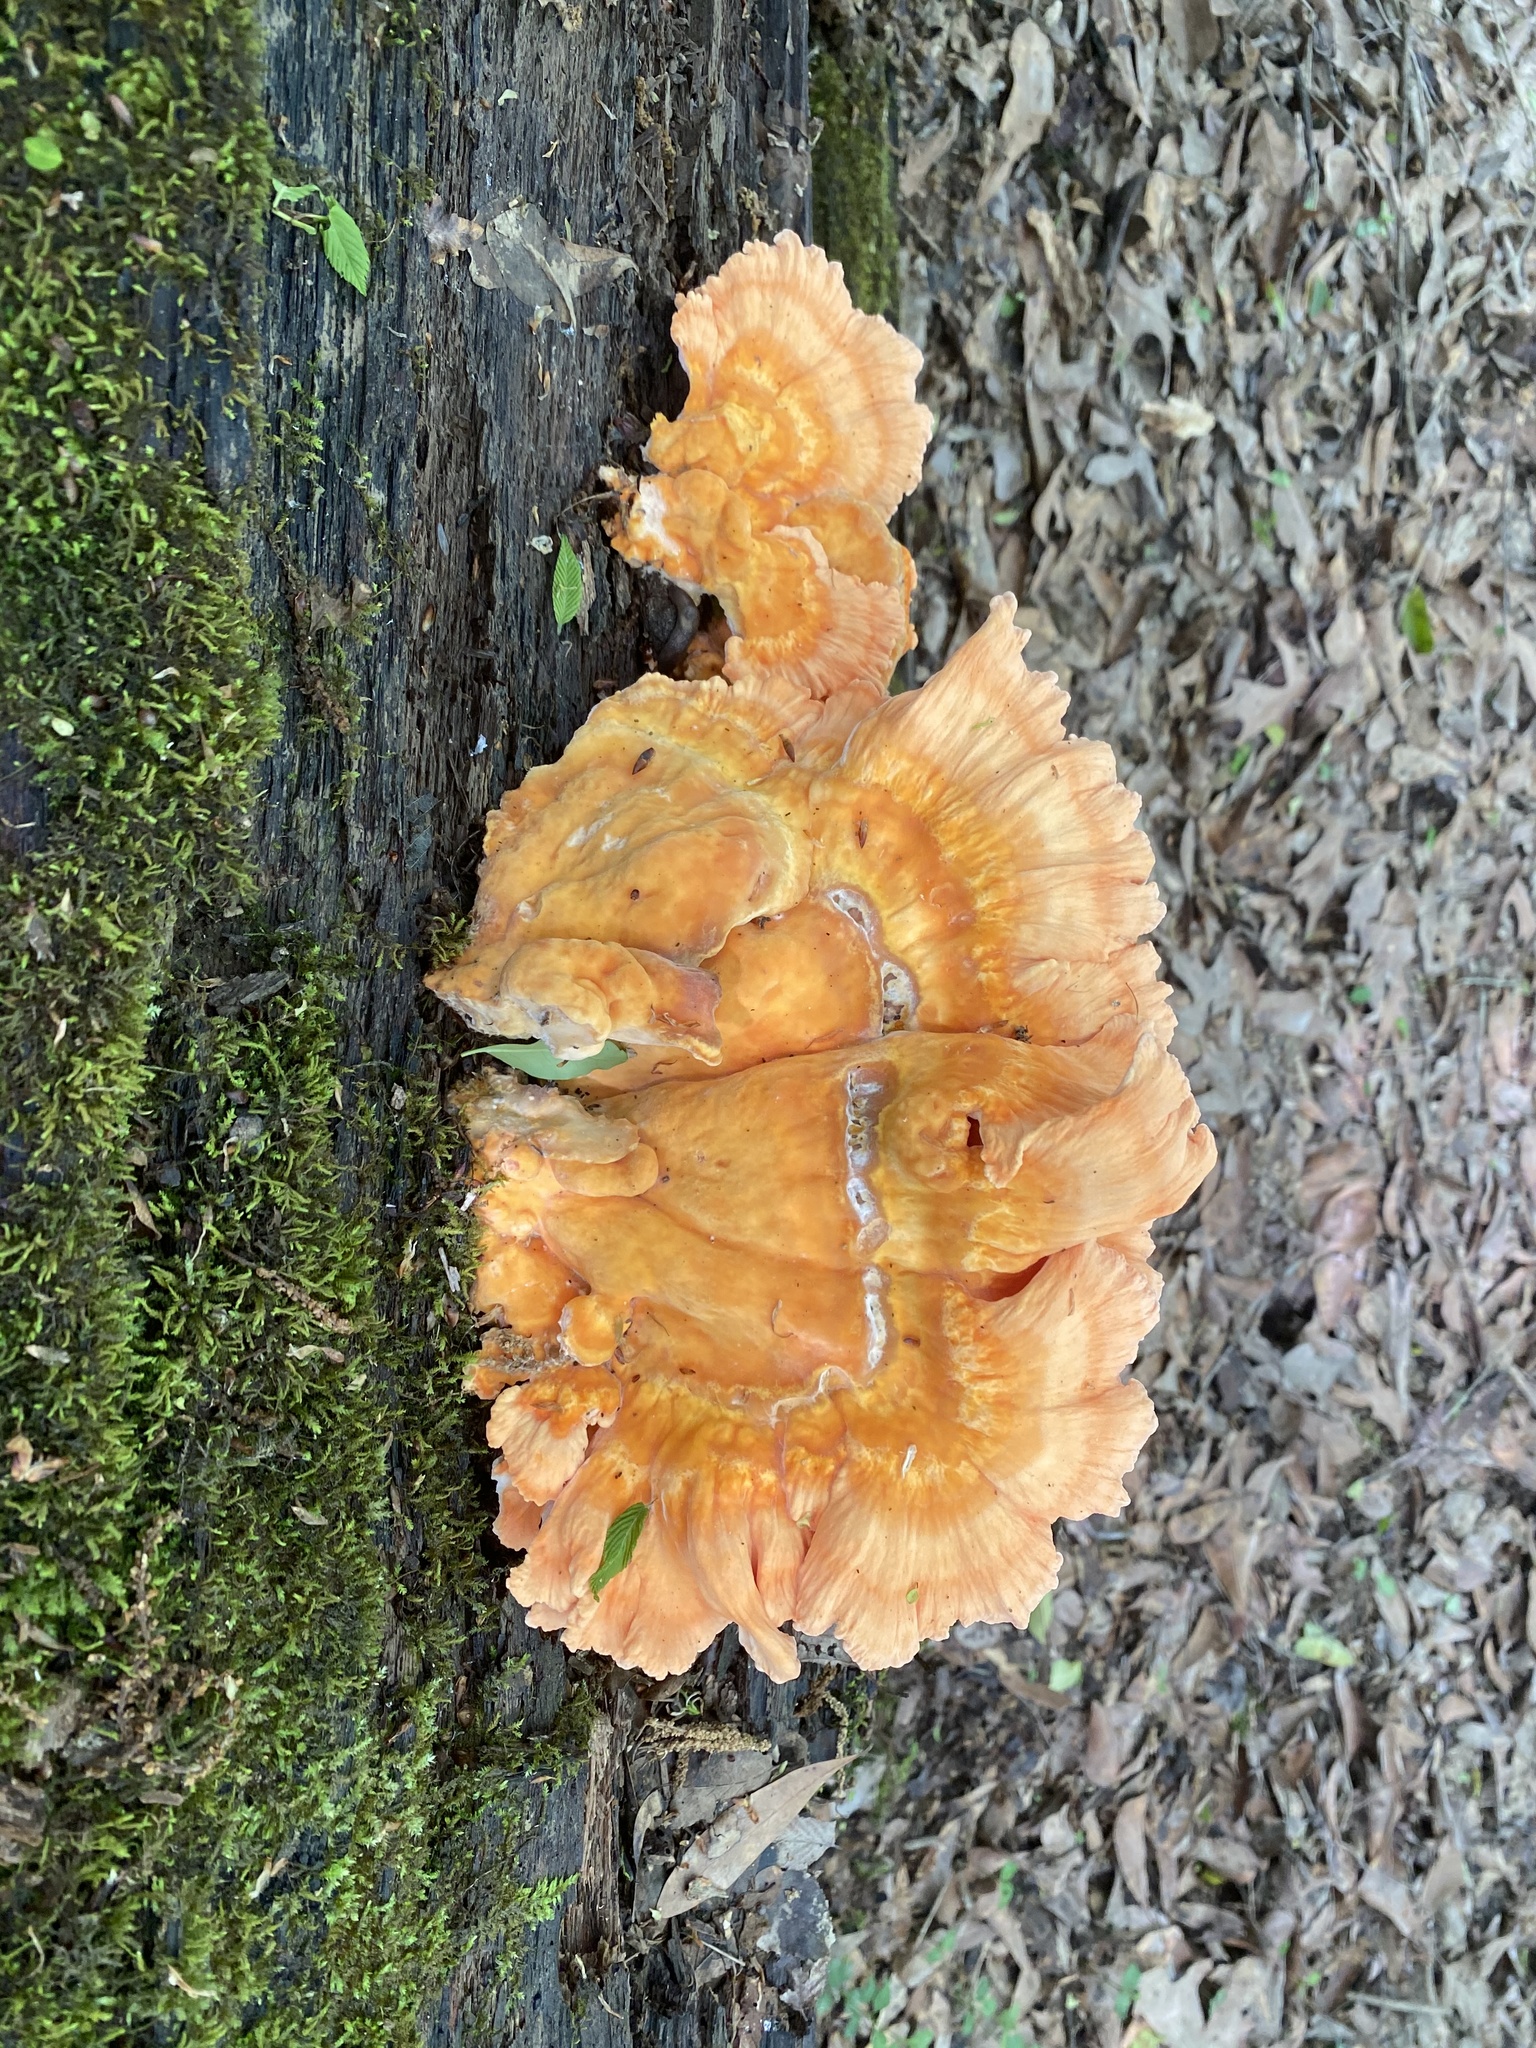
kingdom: Fungi
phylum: Basidiomycota
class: Agaricomycetes
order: Polyporales
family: Laetiporaceae
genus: Laetiporus
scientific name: Laetiporus sulphureus
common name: Chicken of the woods
